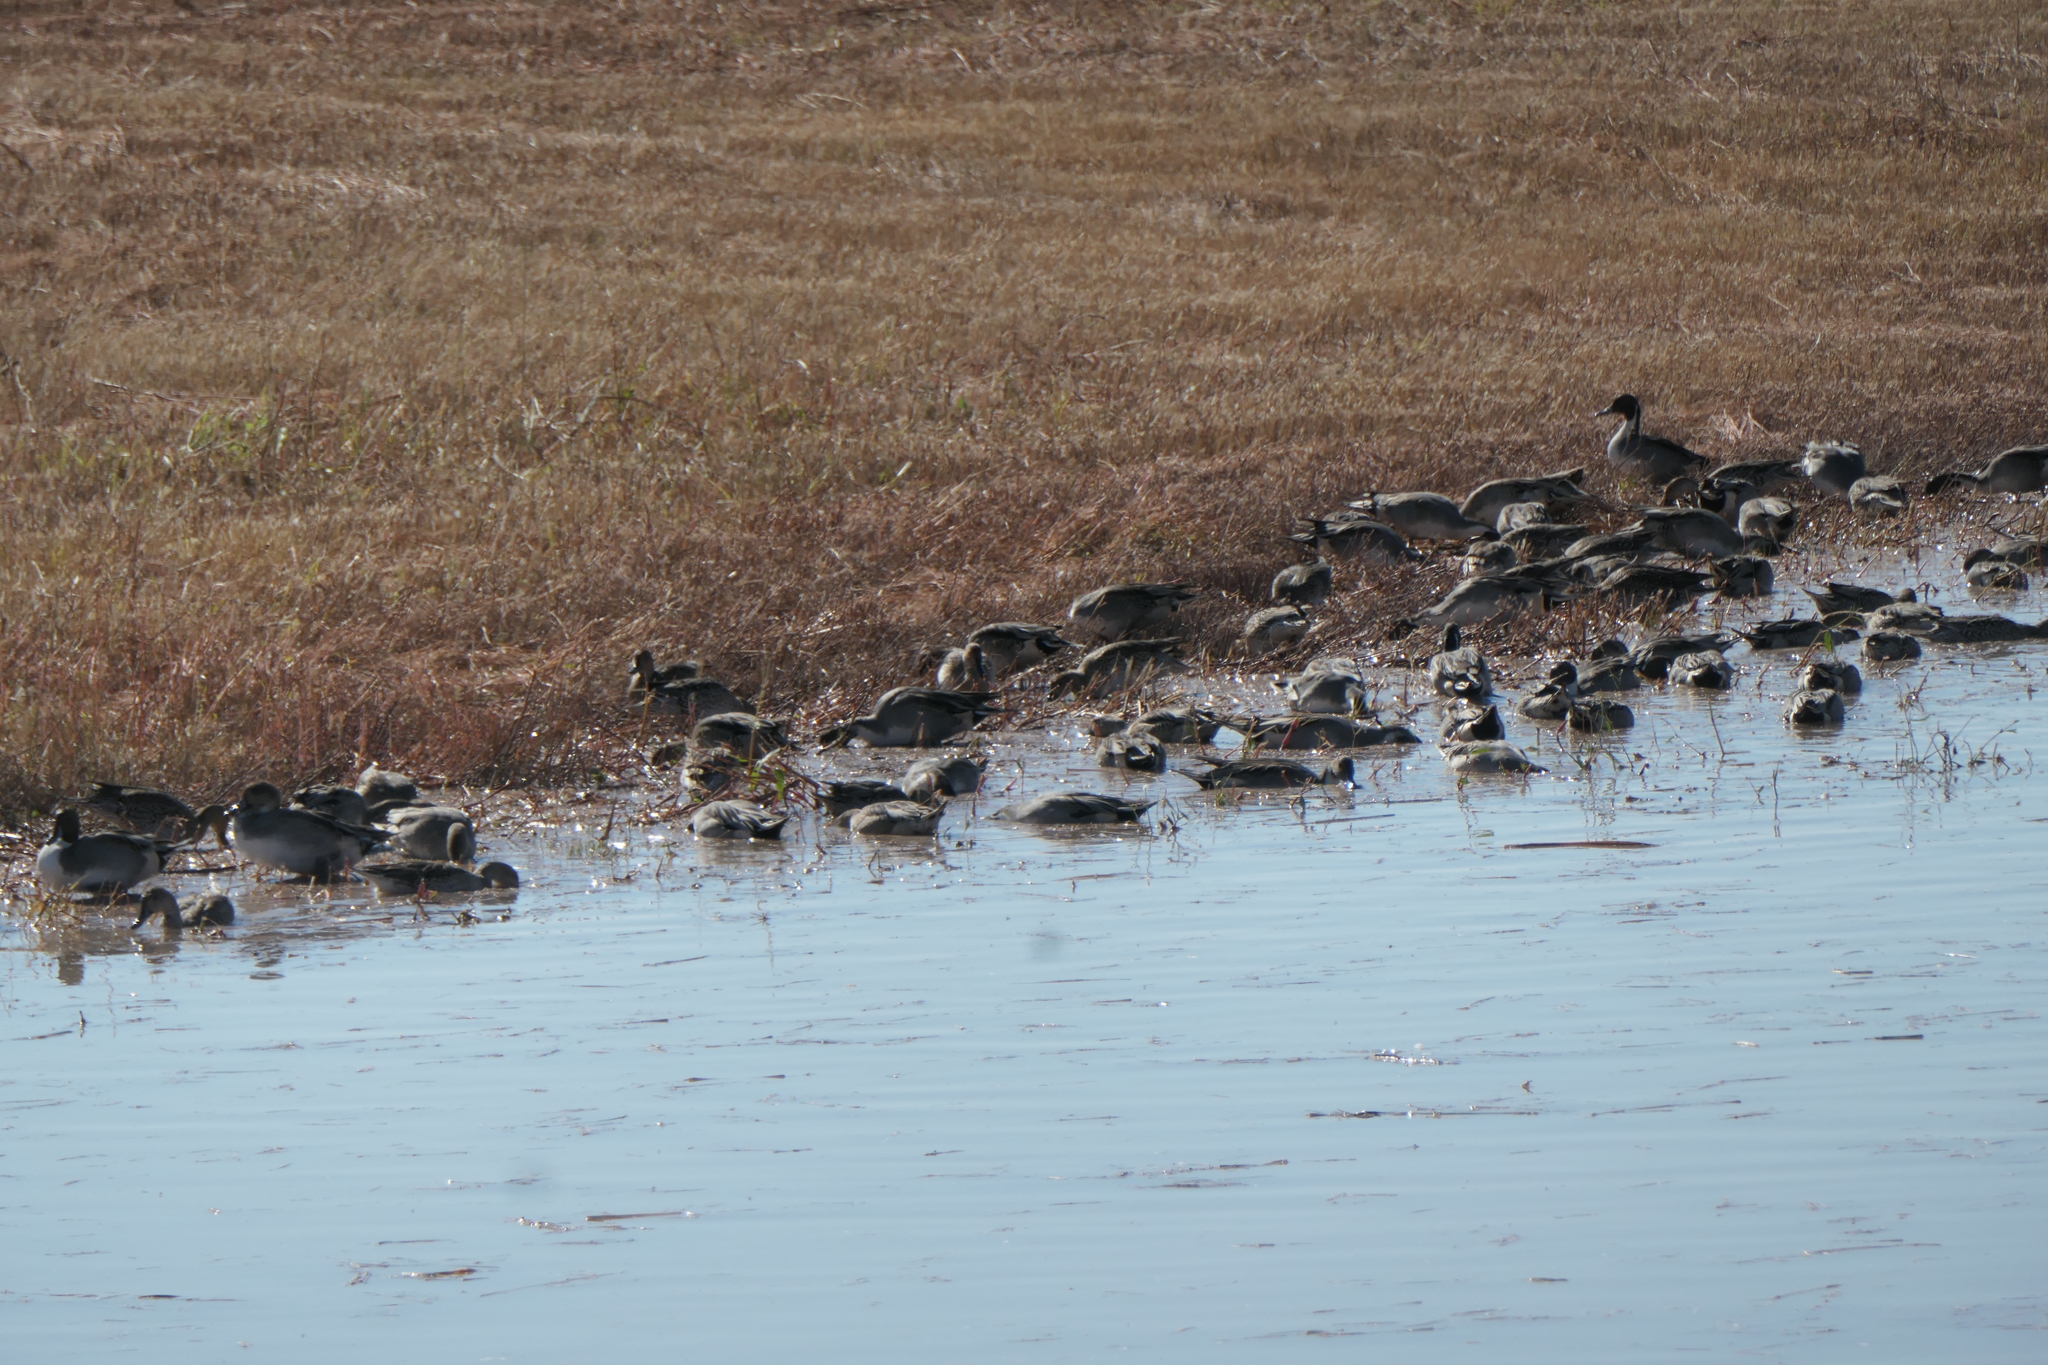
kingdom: Animalia
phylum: Chordata
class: Aves
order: Anseriformes
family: Anatidae
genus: Anas
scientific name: Anas acuta
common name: Northern pintail
